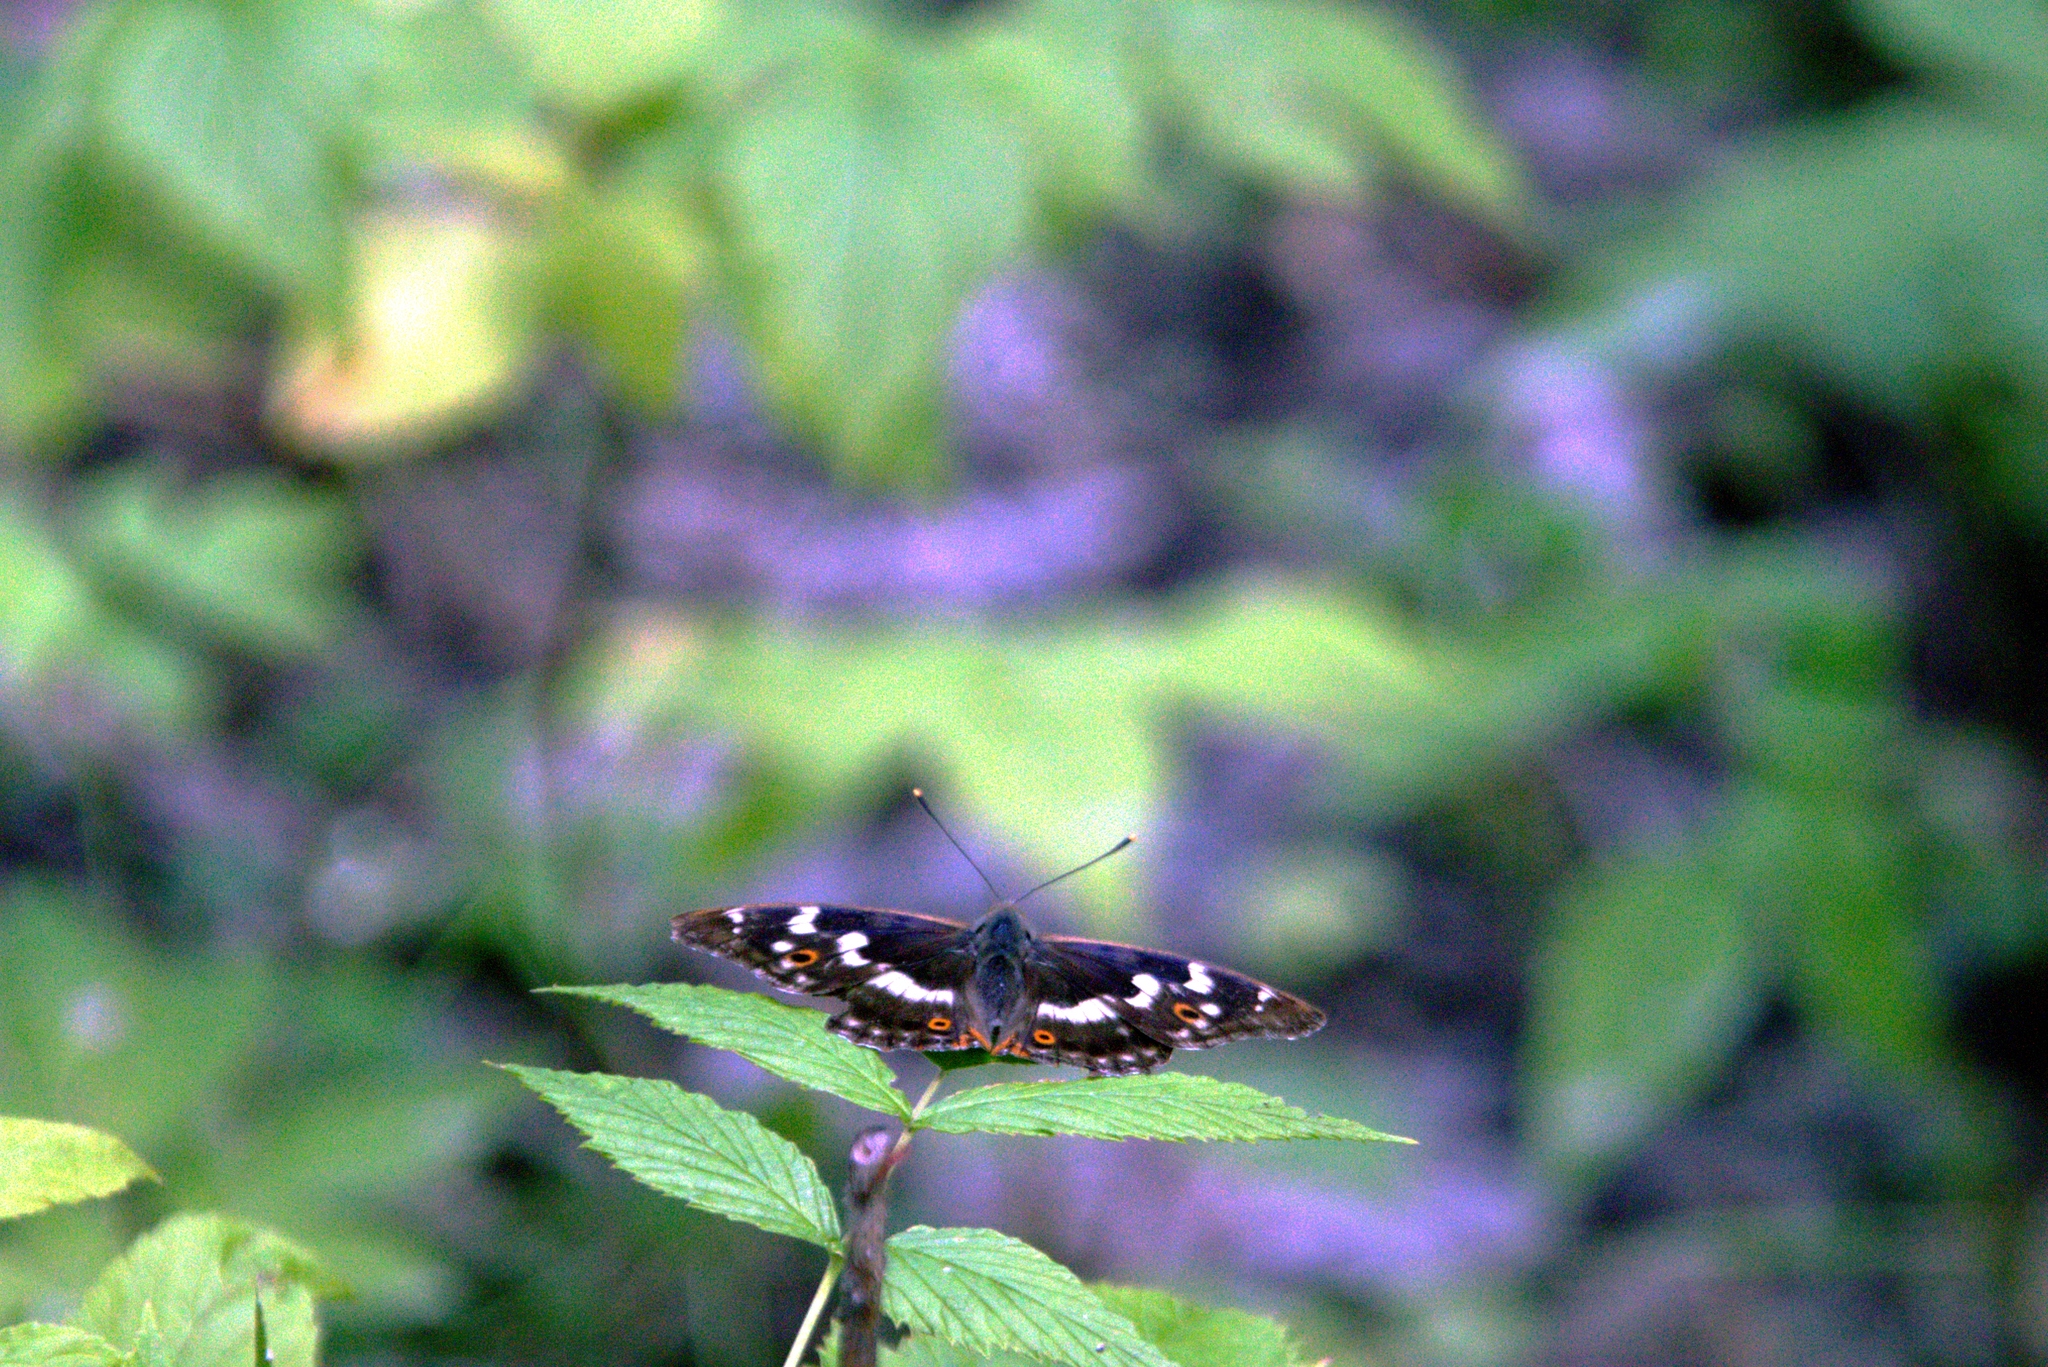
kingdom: Animalia
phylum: Arthropoda
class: Insecta
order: Lepidoptera
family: Nymphalidae
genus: Apatura
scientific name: Apatura ilia
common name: Lesser purple emperor
